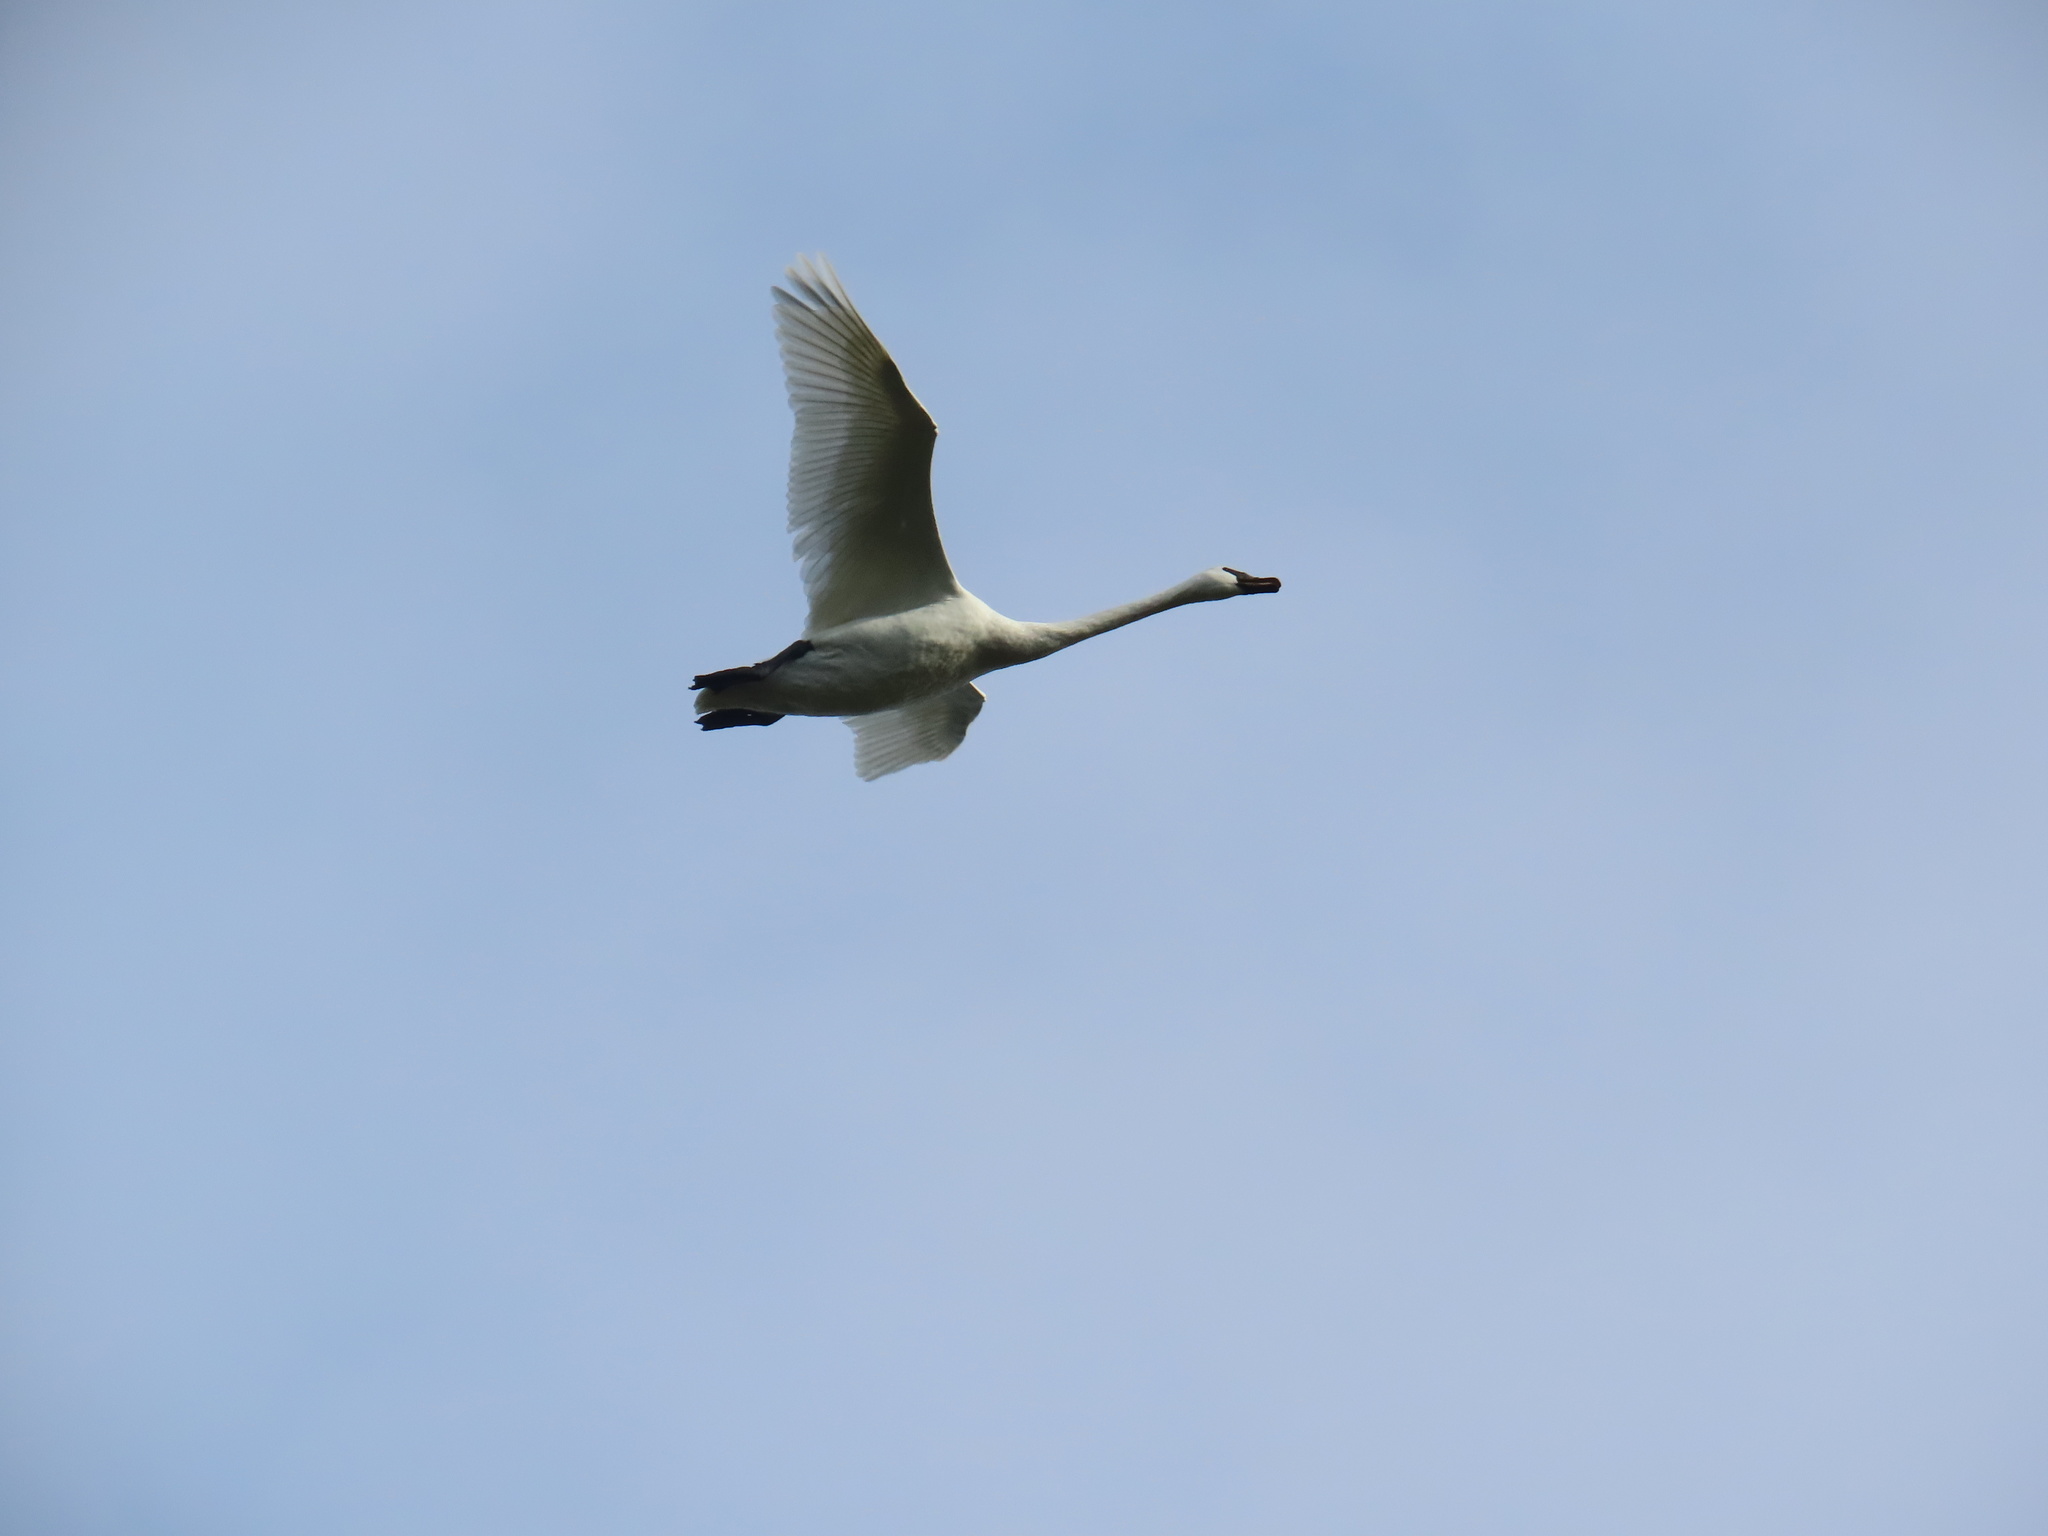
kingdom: Animalia
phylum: Chordata
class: Aves
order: Anseriformes
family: Anatidae
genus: Cygnus
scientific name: Cygnus buccinator
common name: Trumpeter swan
